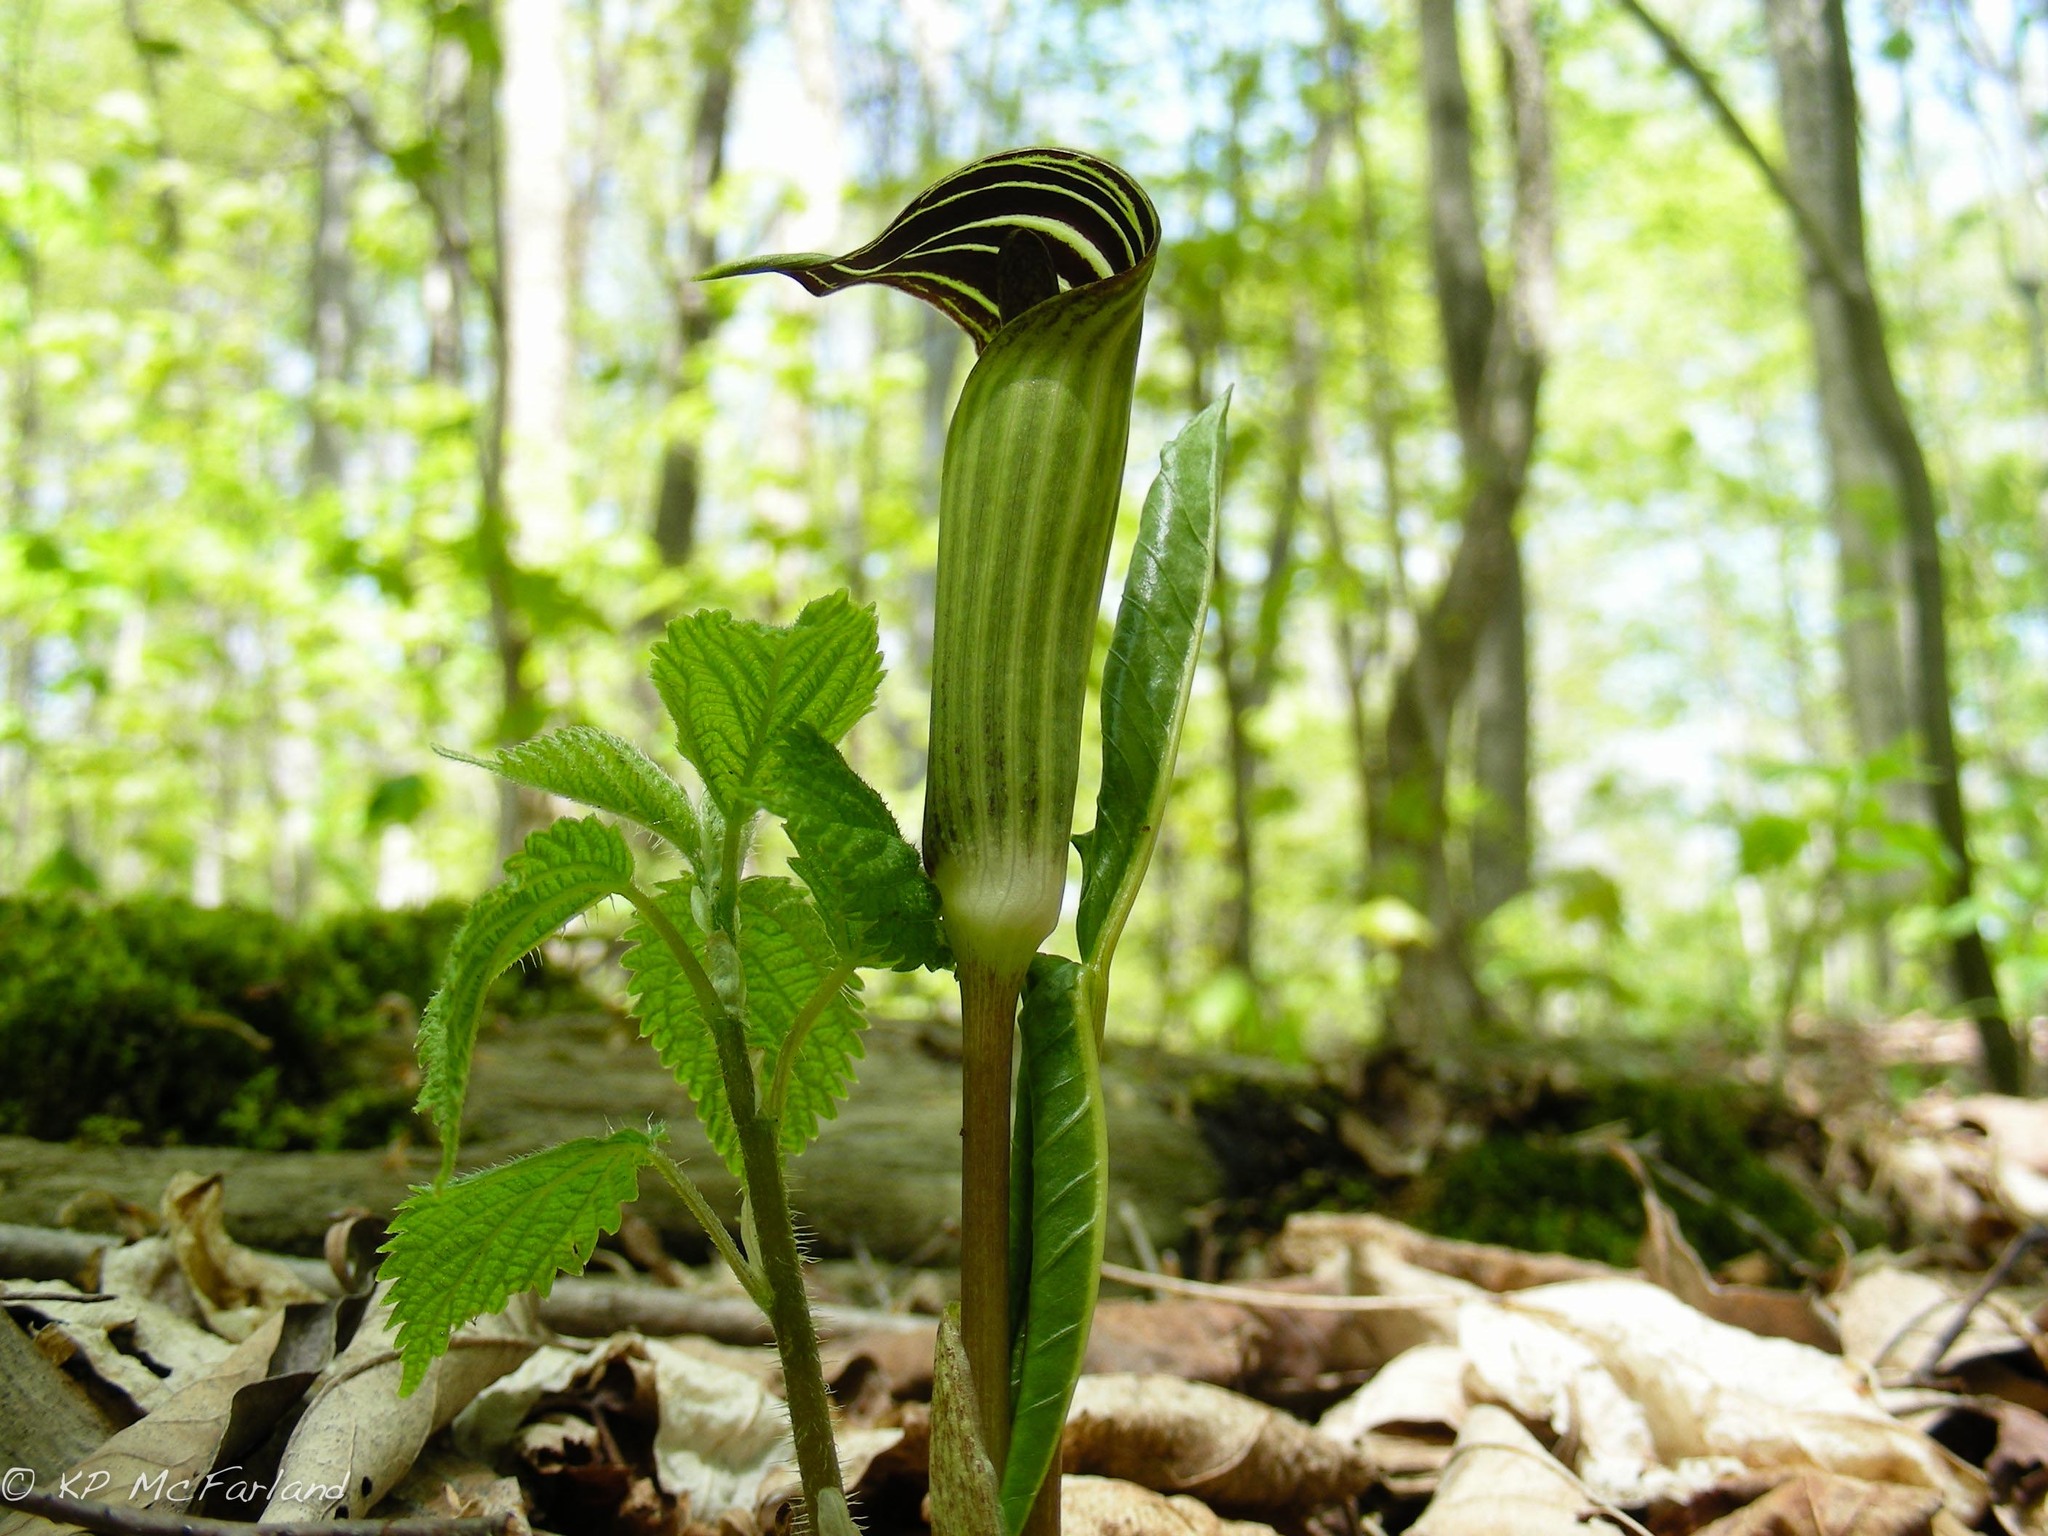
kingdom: Plantae
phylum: Tracheophyta
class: Liliopsida
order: Alismatales
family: Araceae
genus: Arisaema
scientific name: Arisaema triphyllum
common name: Jack-in-the-pulpit
